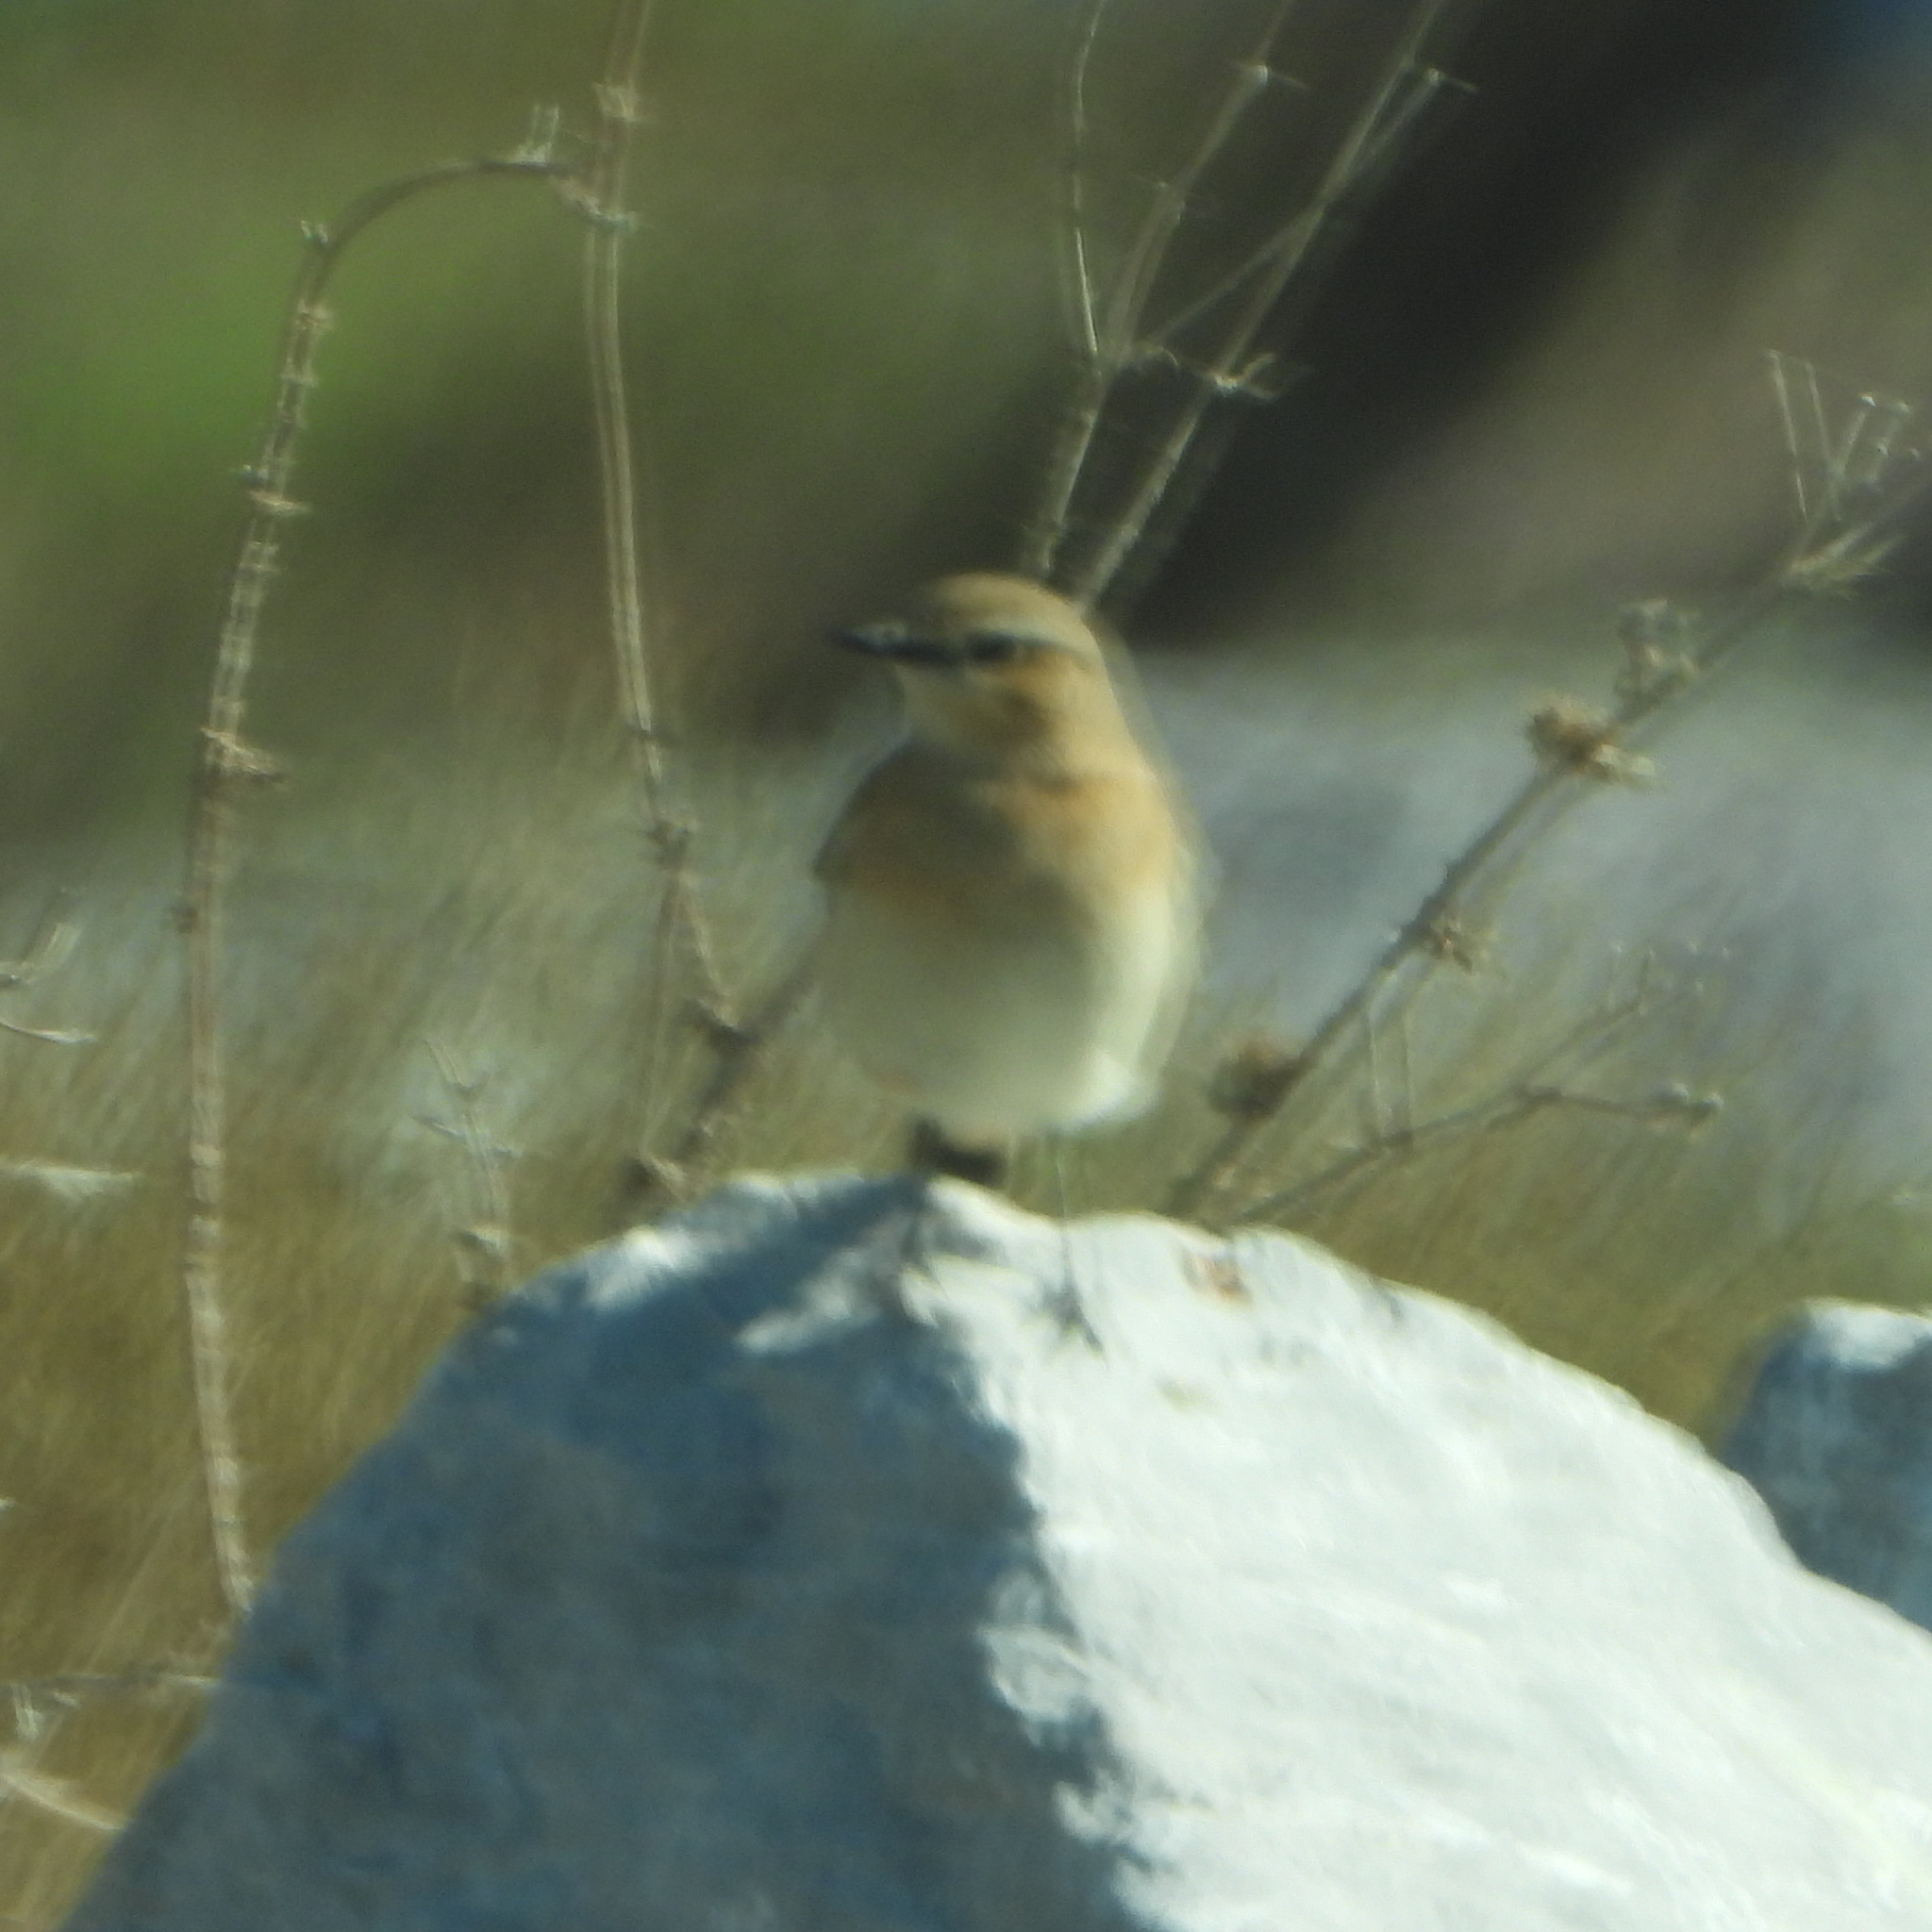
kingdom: Animalia
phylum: Chordata
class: Aves
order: Passeriformes
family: Muscicapidae
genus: Oenanthe
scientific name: Oenanthe oenanthe
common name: Northern wheatear
